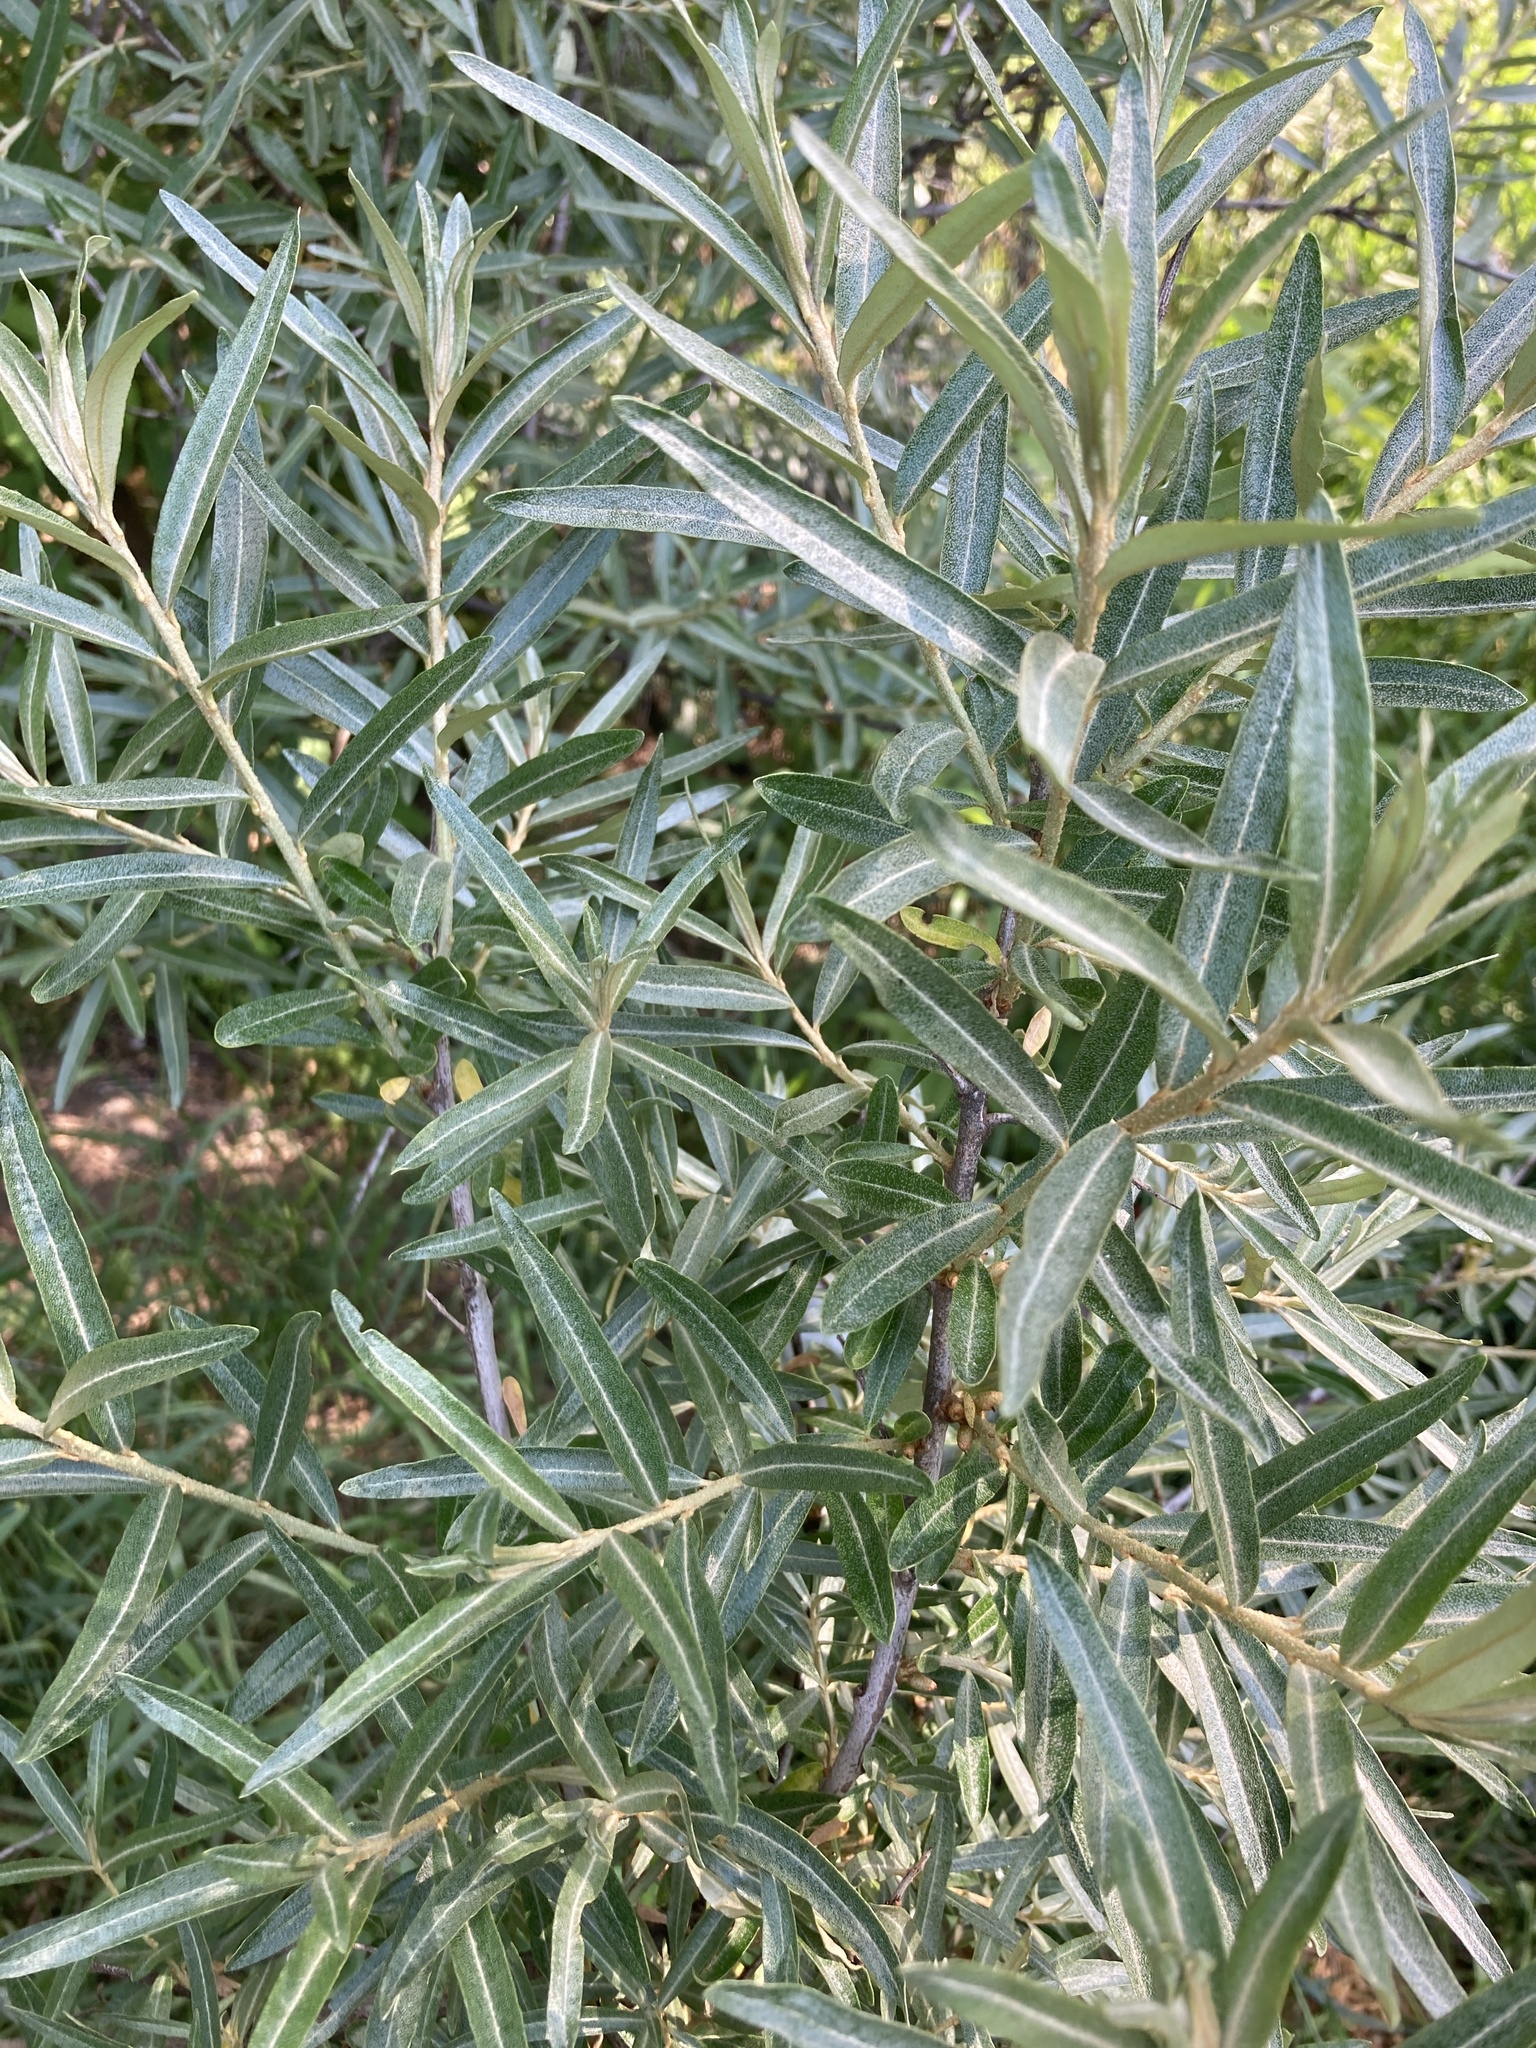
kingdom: Plantae
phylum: Tracheophyta
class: Magnoliopsida
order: Rosales
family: Elaeagnaceae
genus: Hippophae
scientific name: Hippophae rhamnoides
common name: Sea-buckthorn
